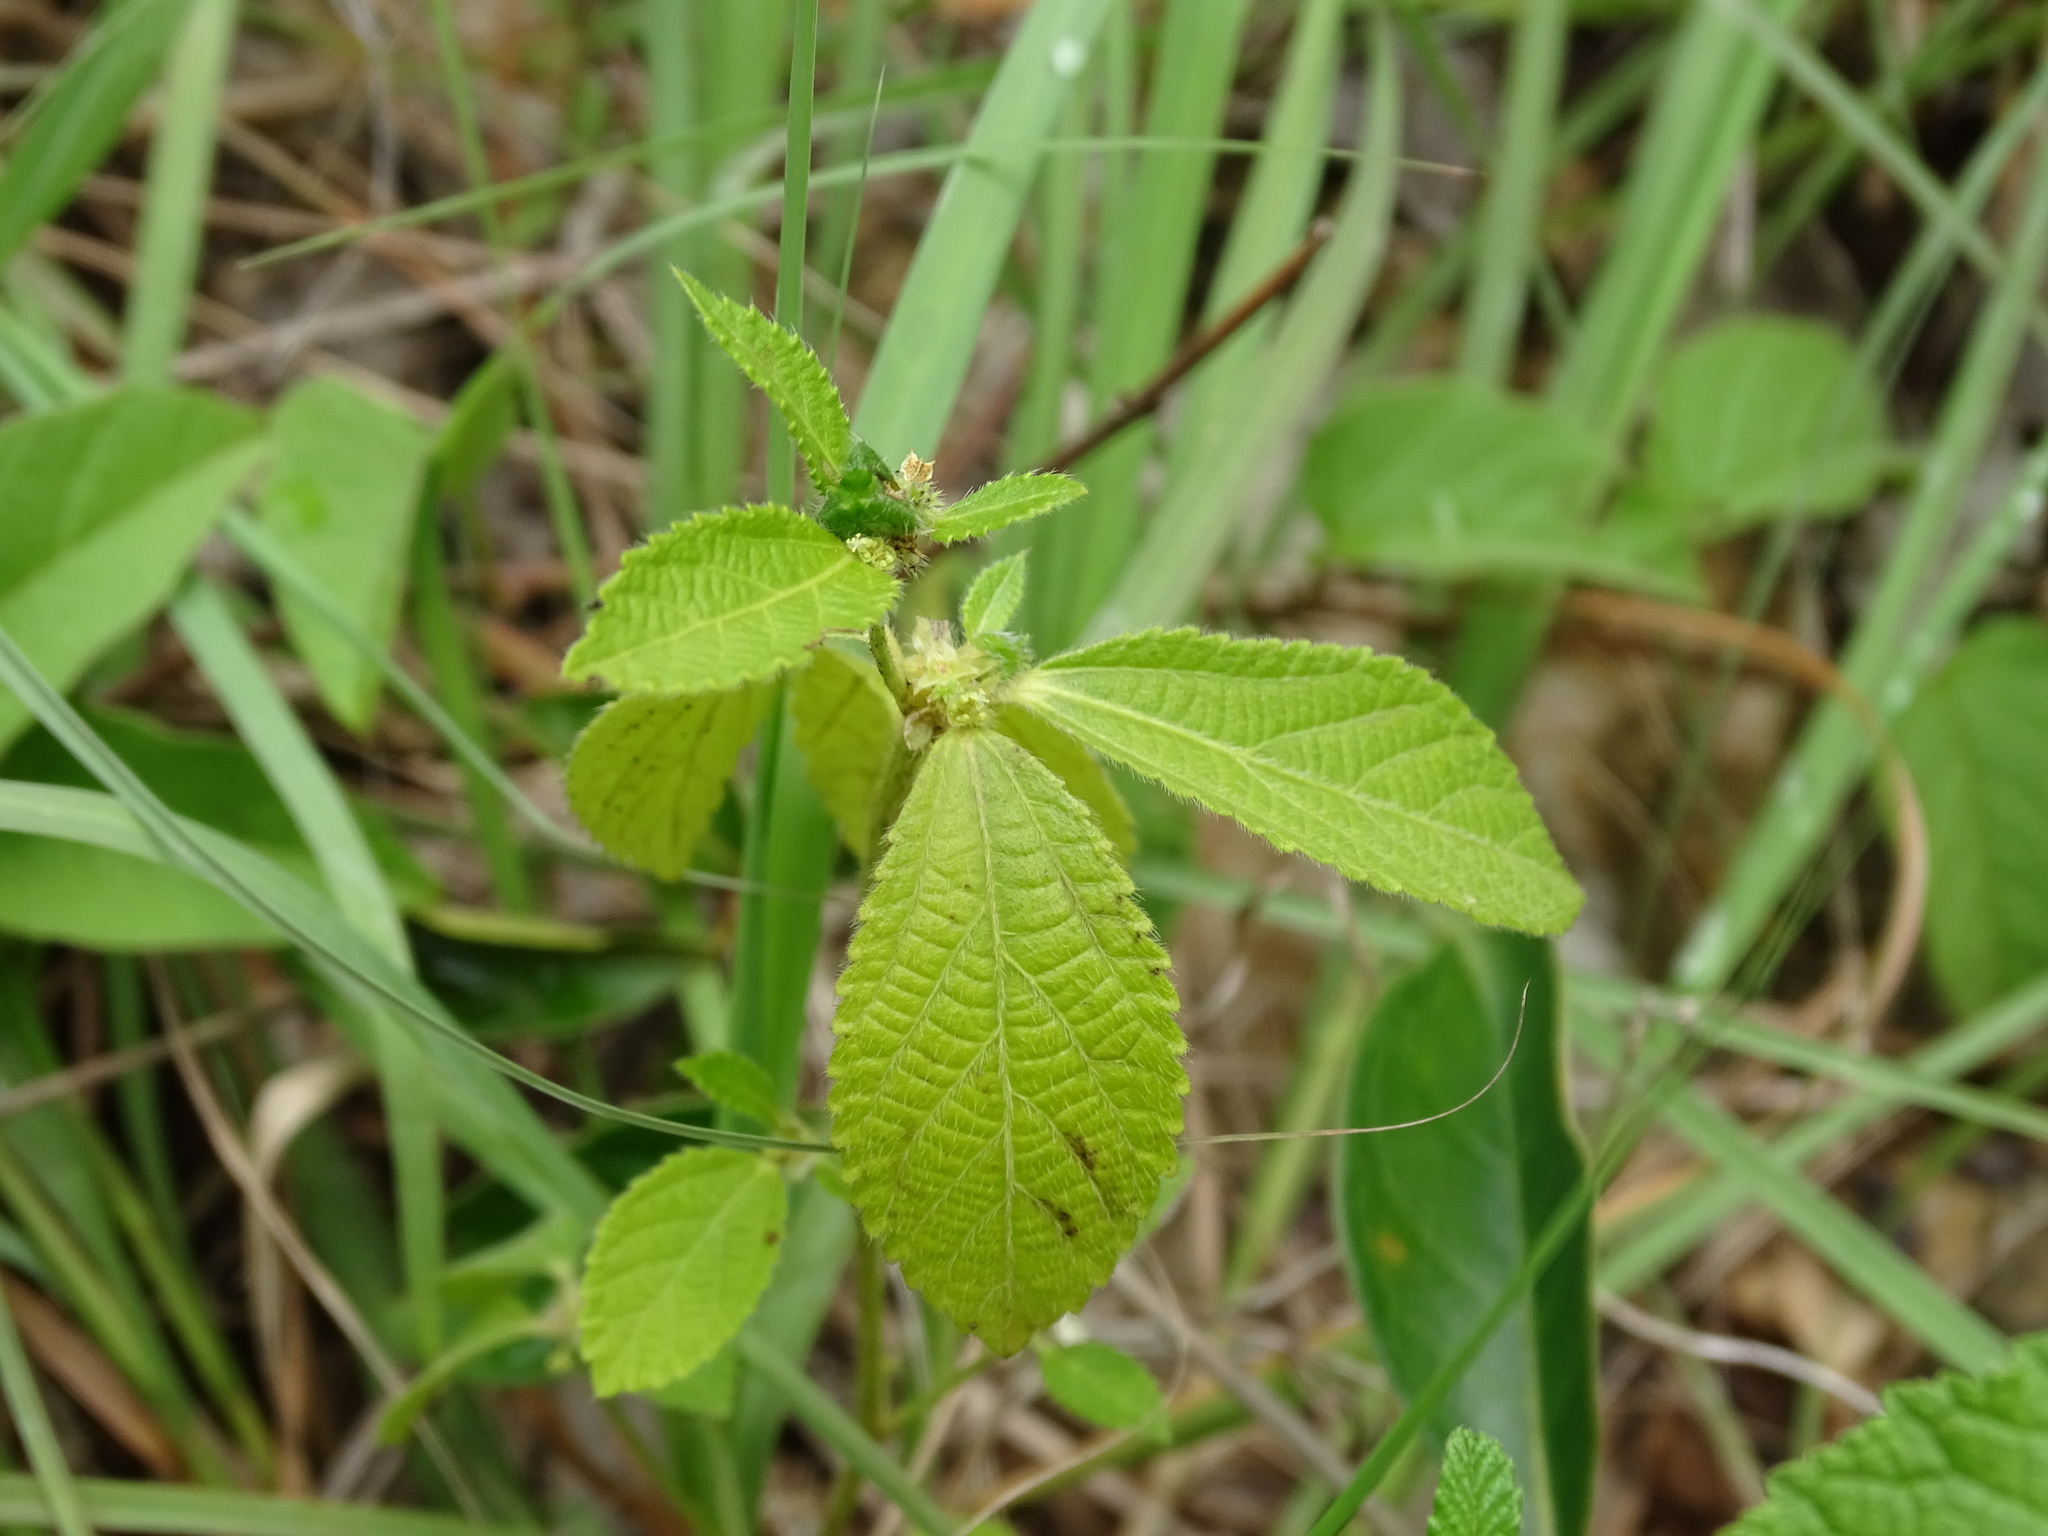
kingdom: Plantae
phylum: Tracheophyta
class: Magnoliopsida
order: Malpighiales
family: Euphorbiaceae
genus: Bernardia
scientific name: Bernardia sidoides
